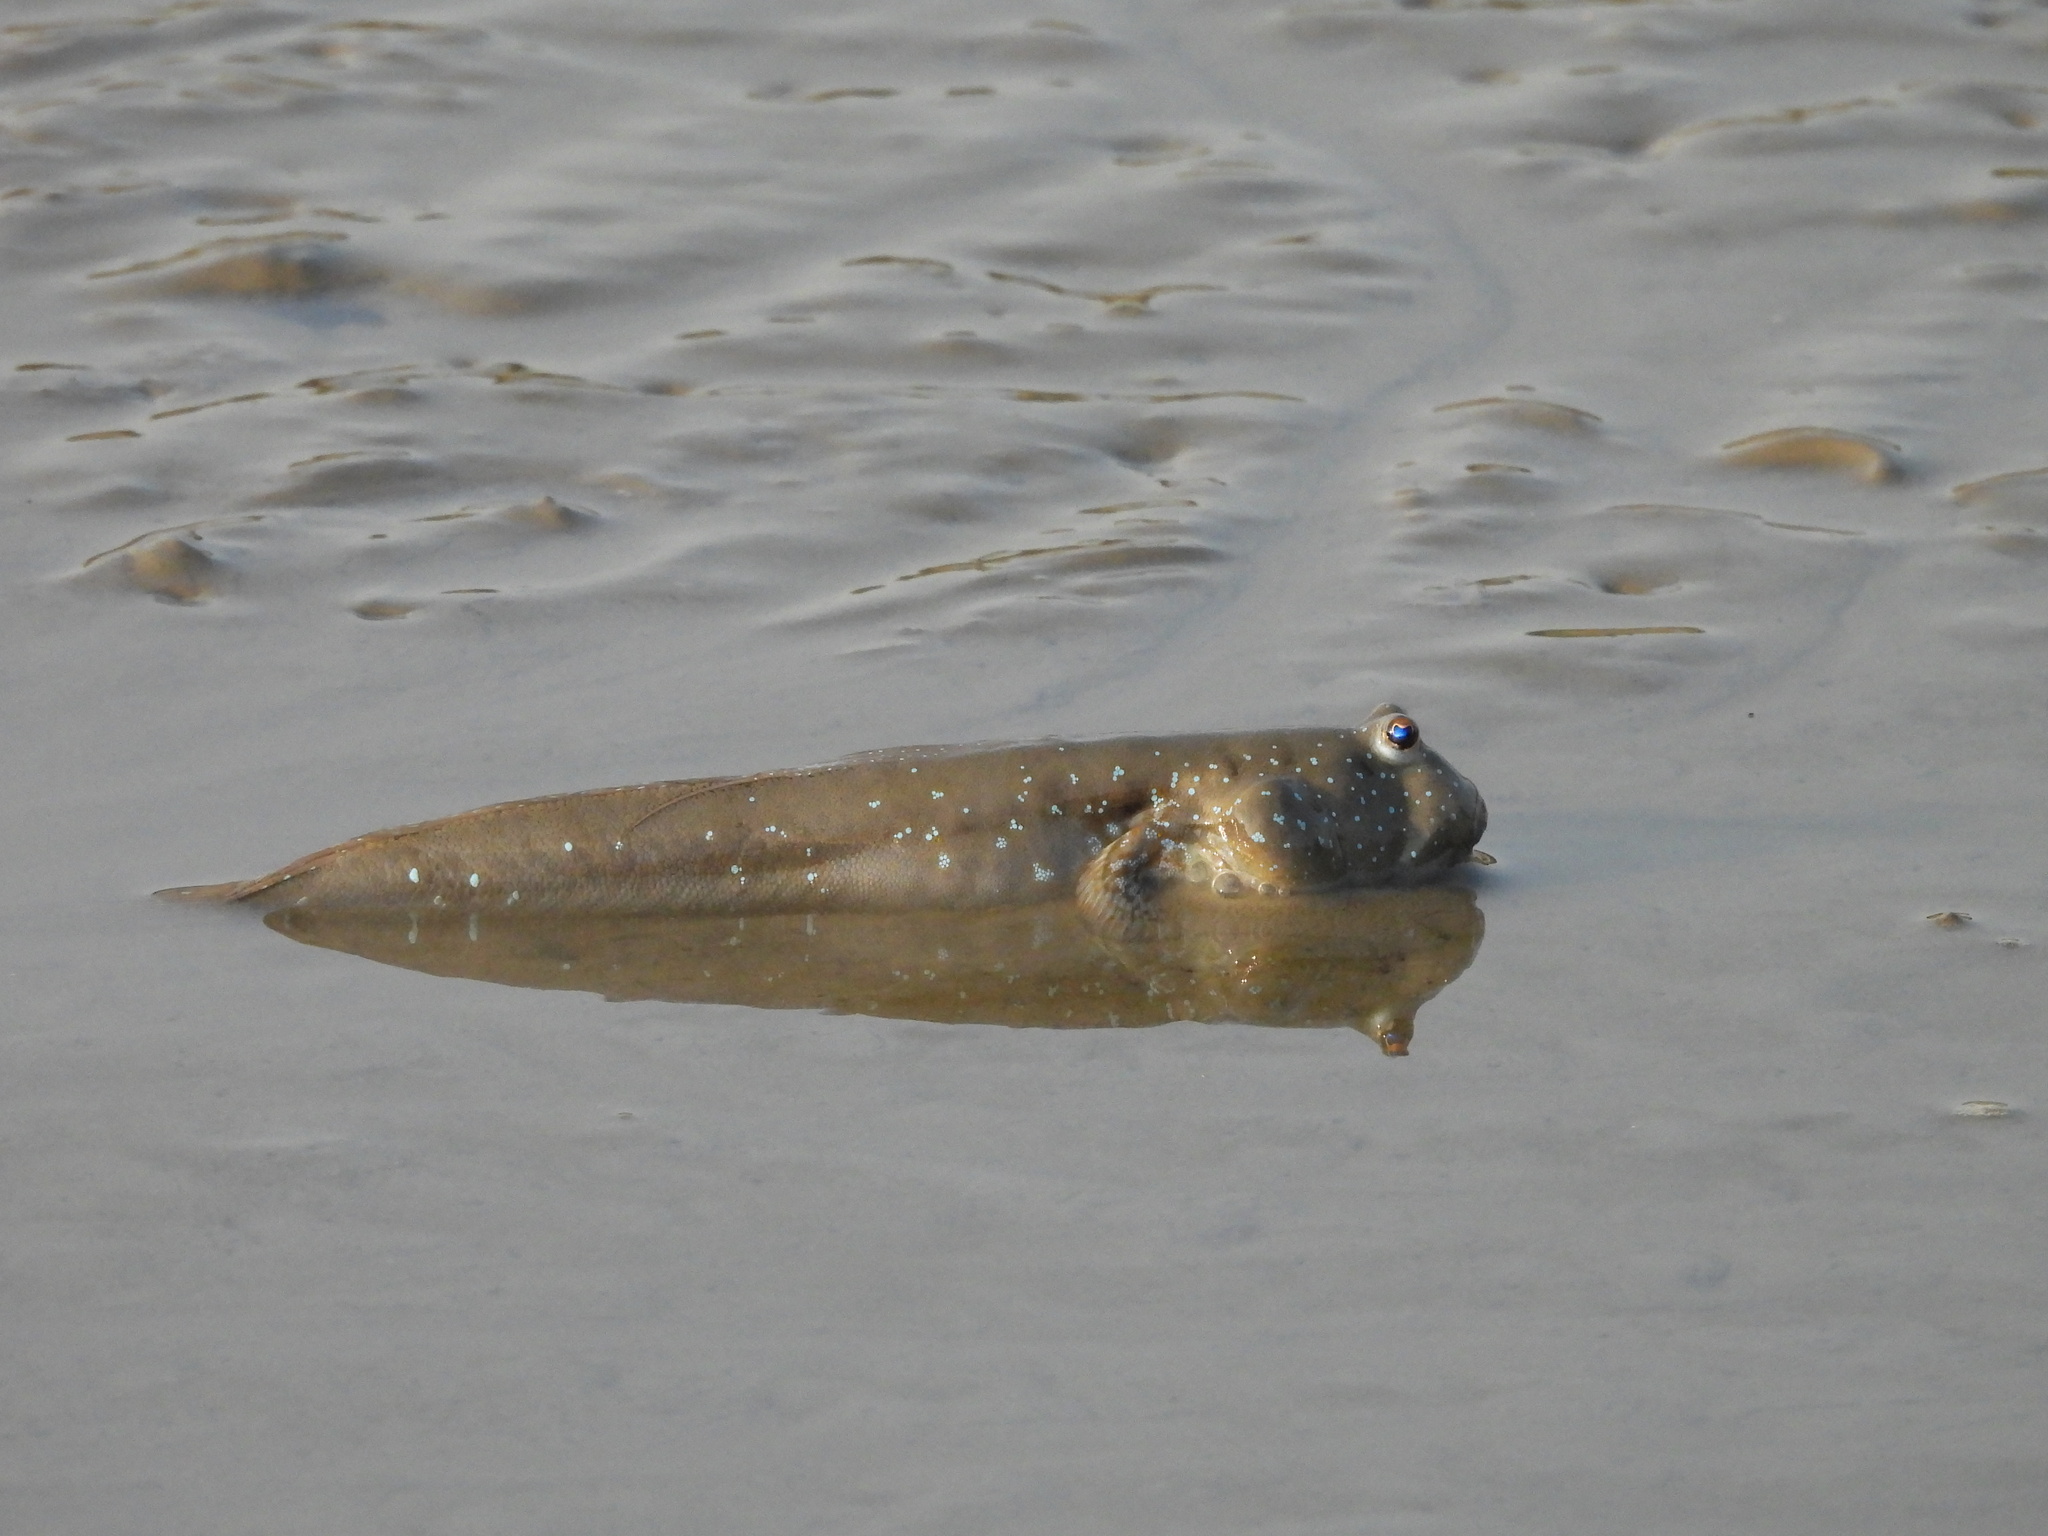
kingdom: Animalia
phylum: Chordata
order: Perciformes
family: Gobiidae
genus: Boleophthalmus
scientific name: Boleophthalmus pectinirostris
